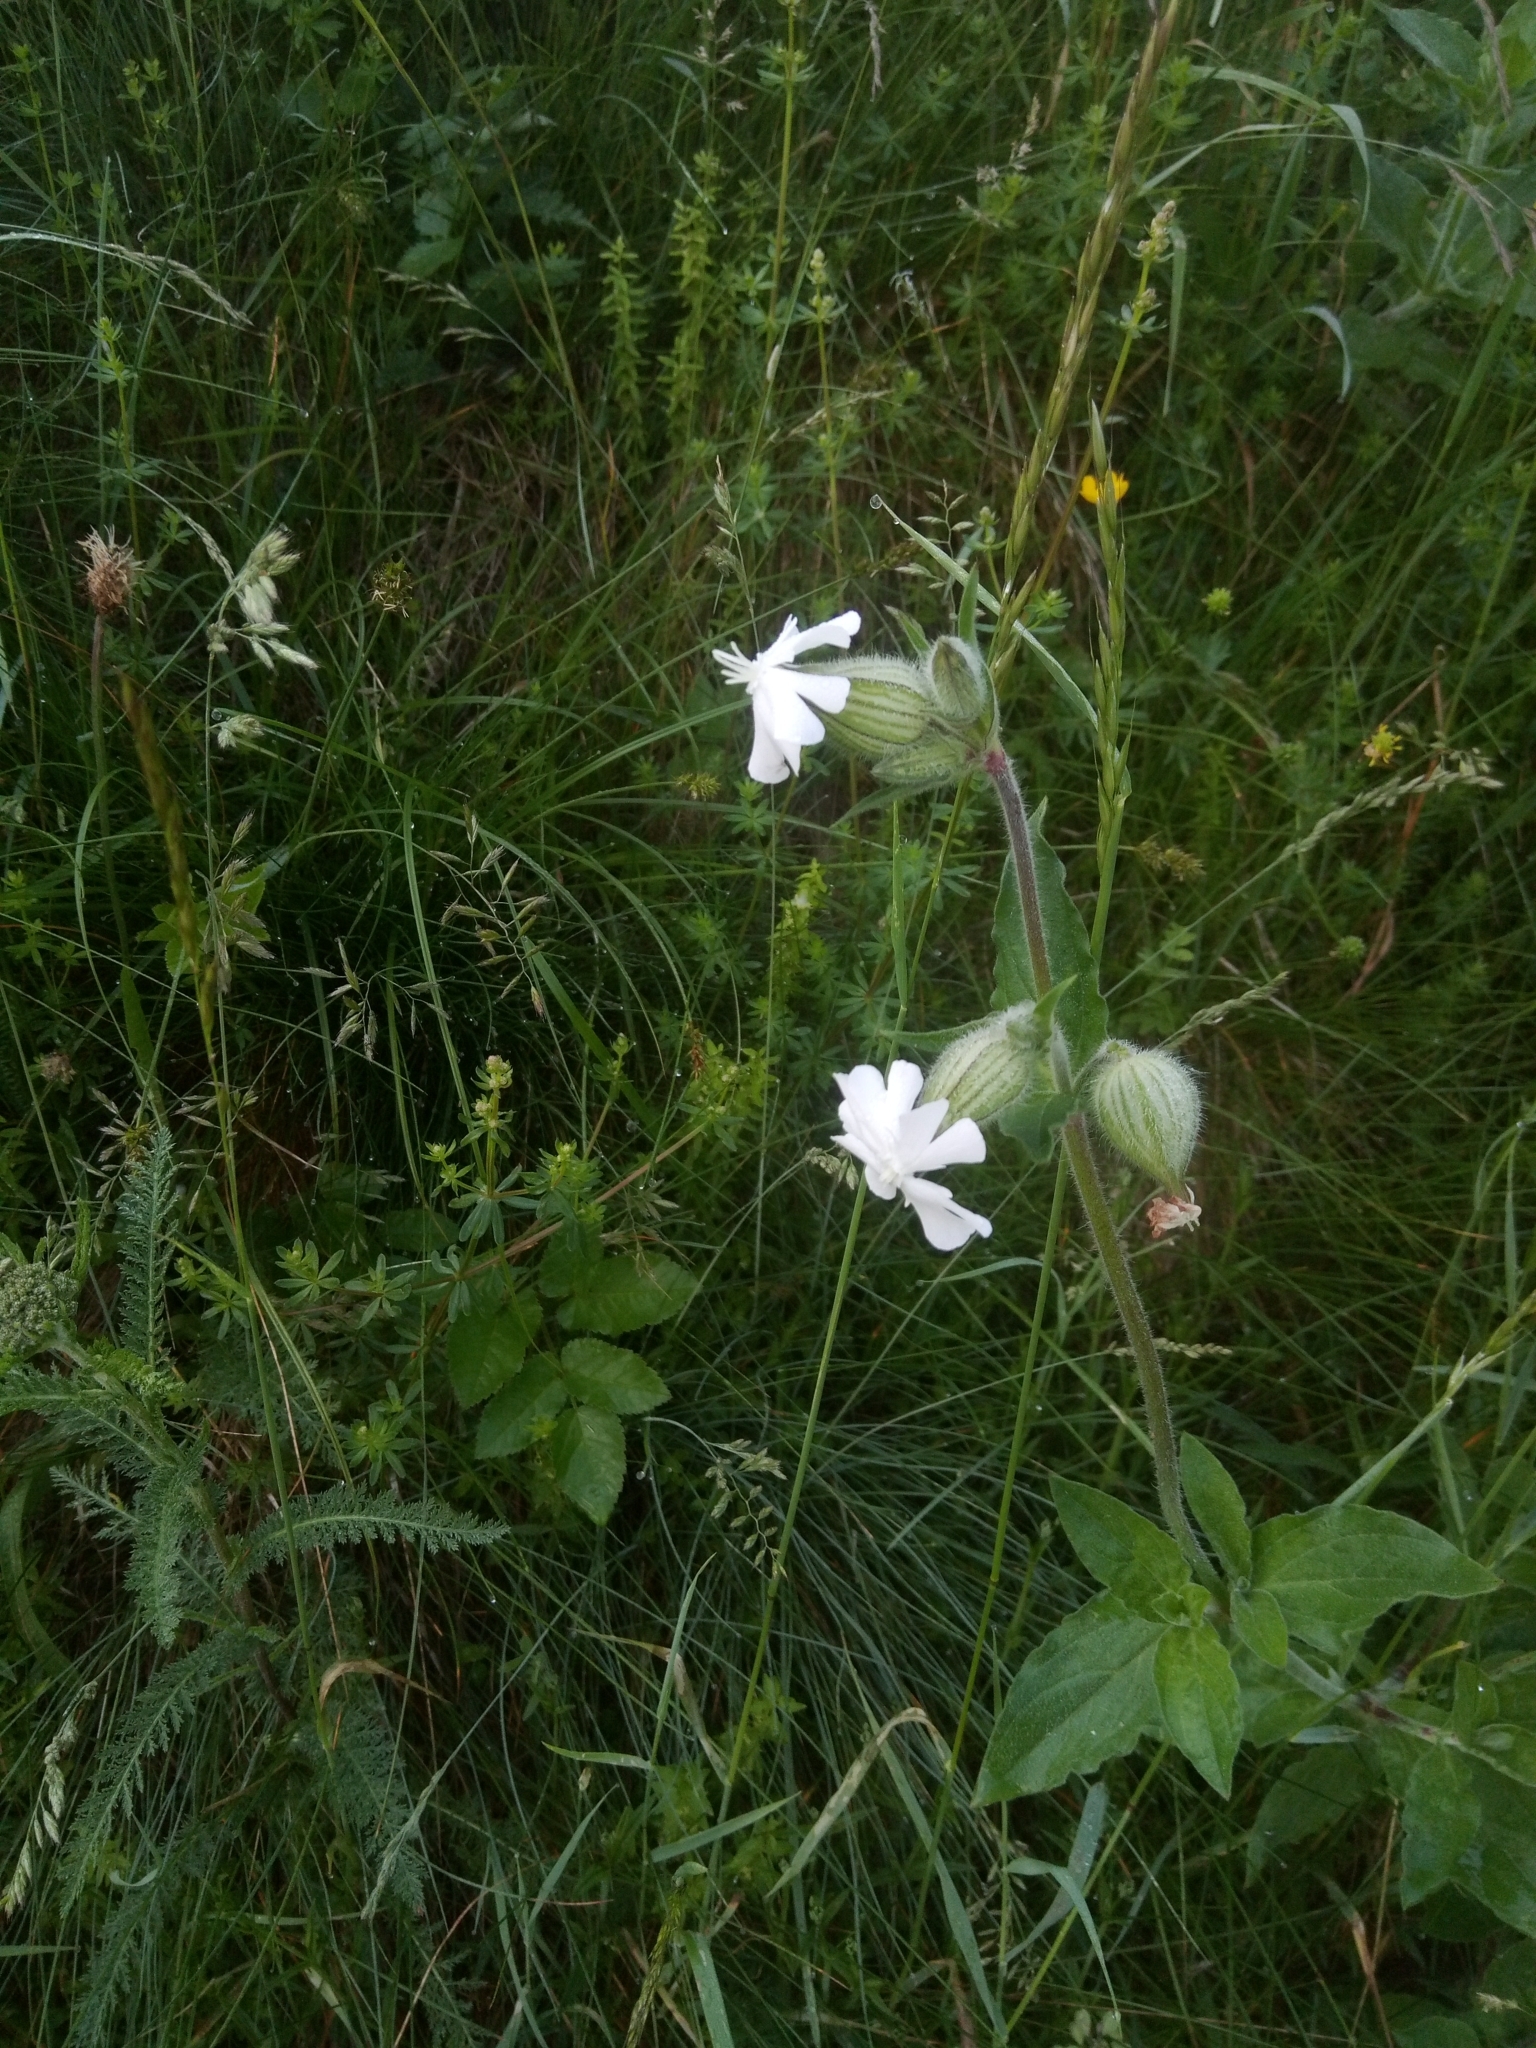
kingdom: Plantae
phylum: Tracheophyta
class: Magnoliopsida
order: Caryophyllales
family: Caryophyllaceae
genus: Silene
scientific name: Silene latifolia
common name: White campion
